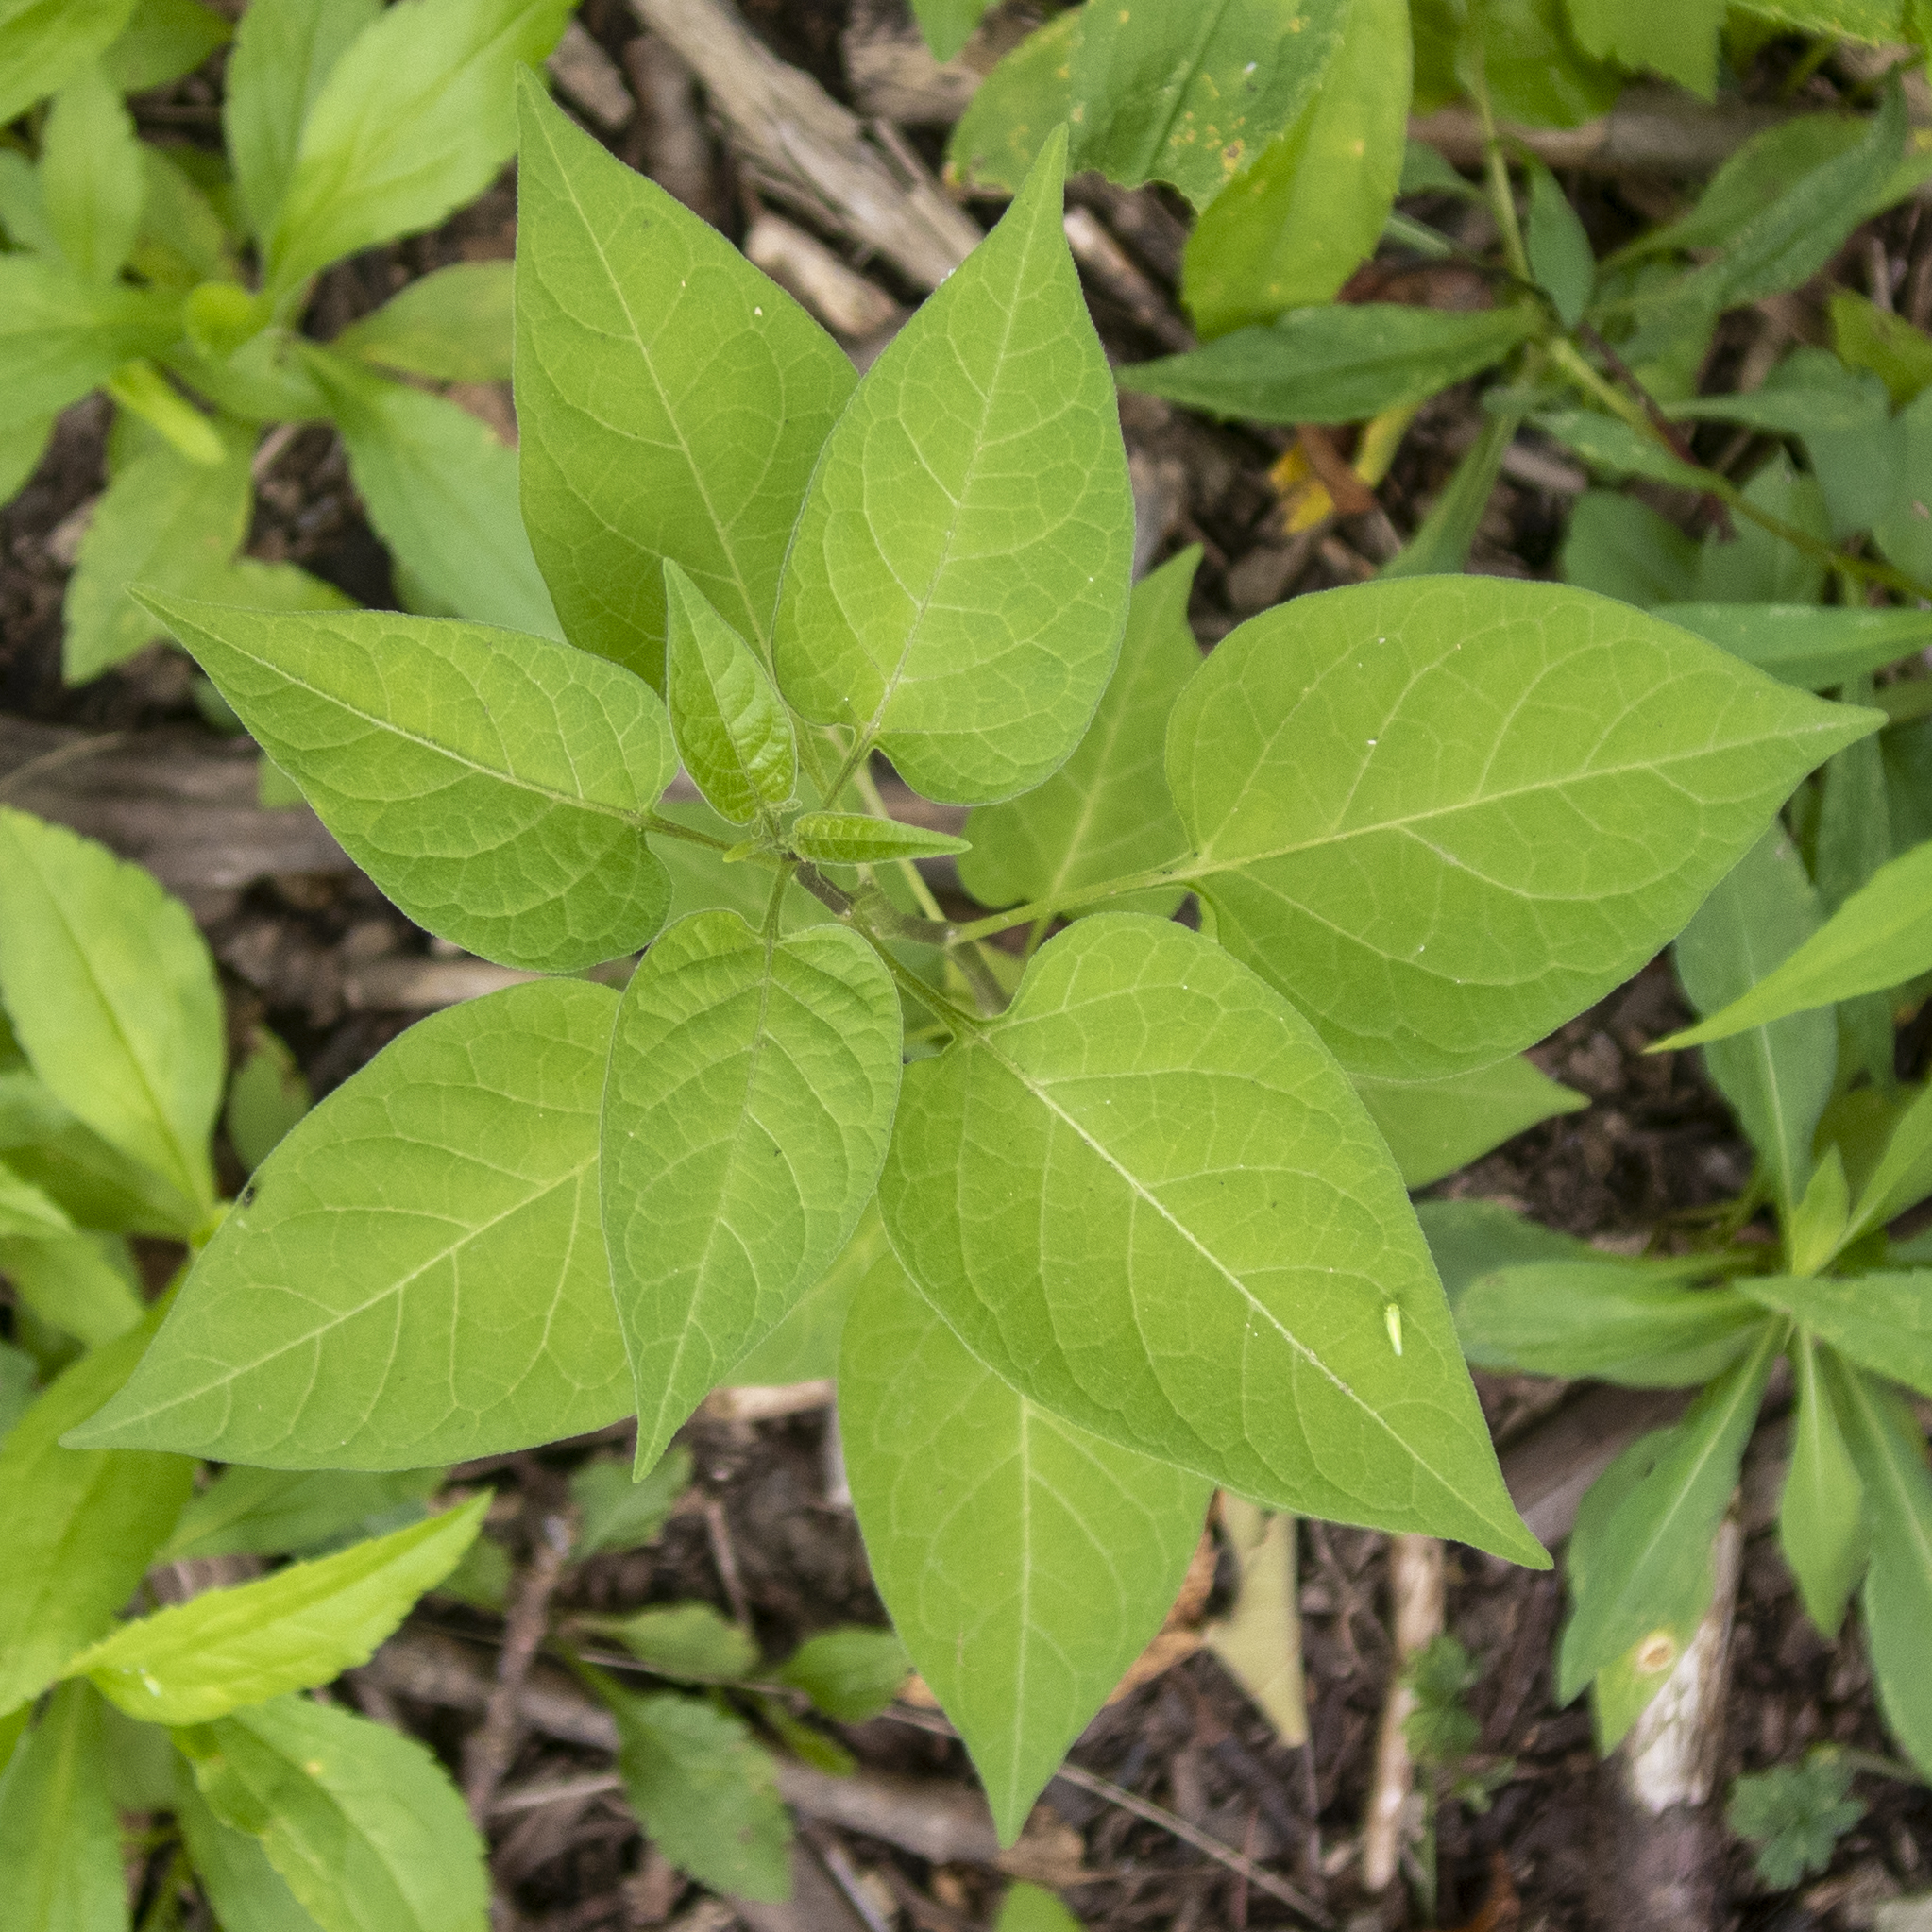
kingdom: Plantae
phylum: Tracheophyta
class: Magnoliopsida
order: Solanales
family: Solanaceae
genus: Solanum
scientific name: Solanum dulcamara
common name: Climbing nightshade
